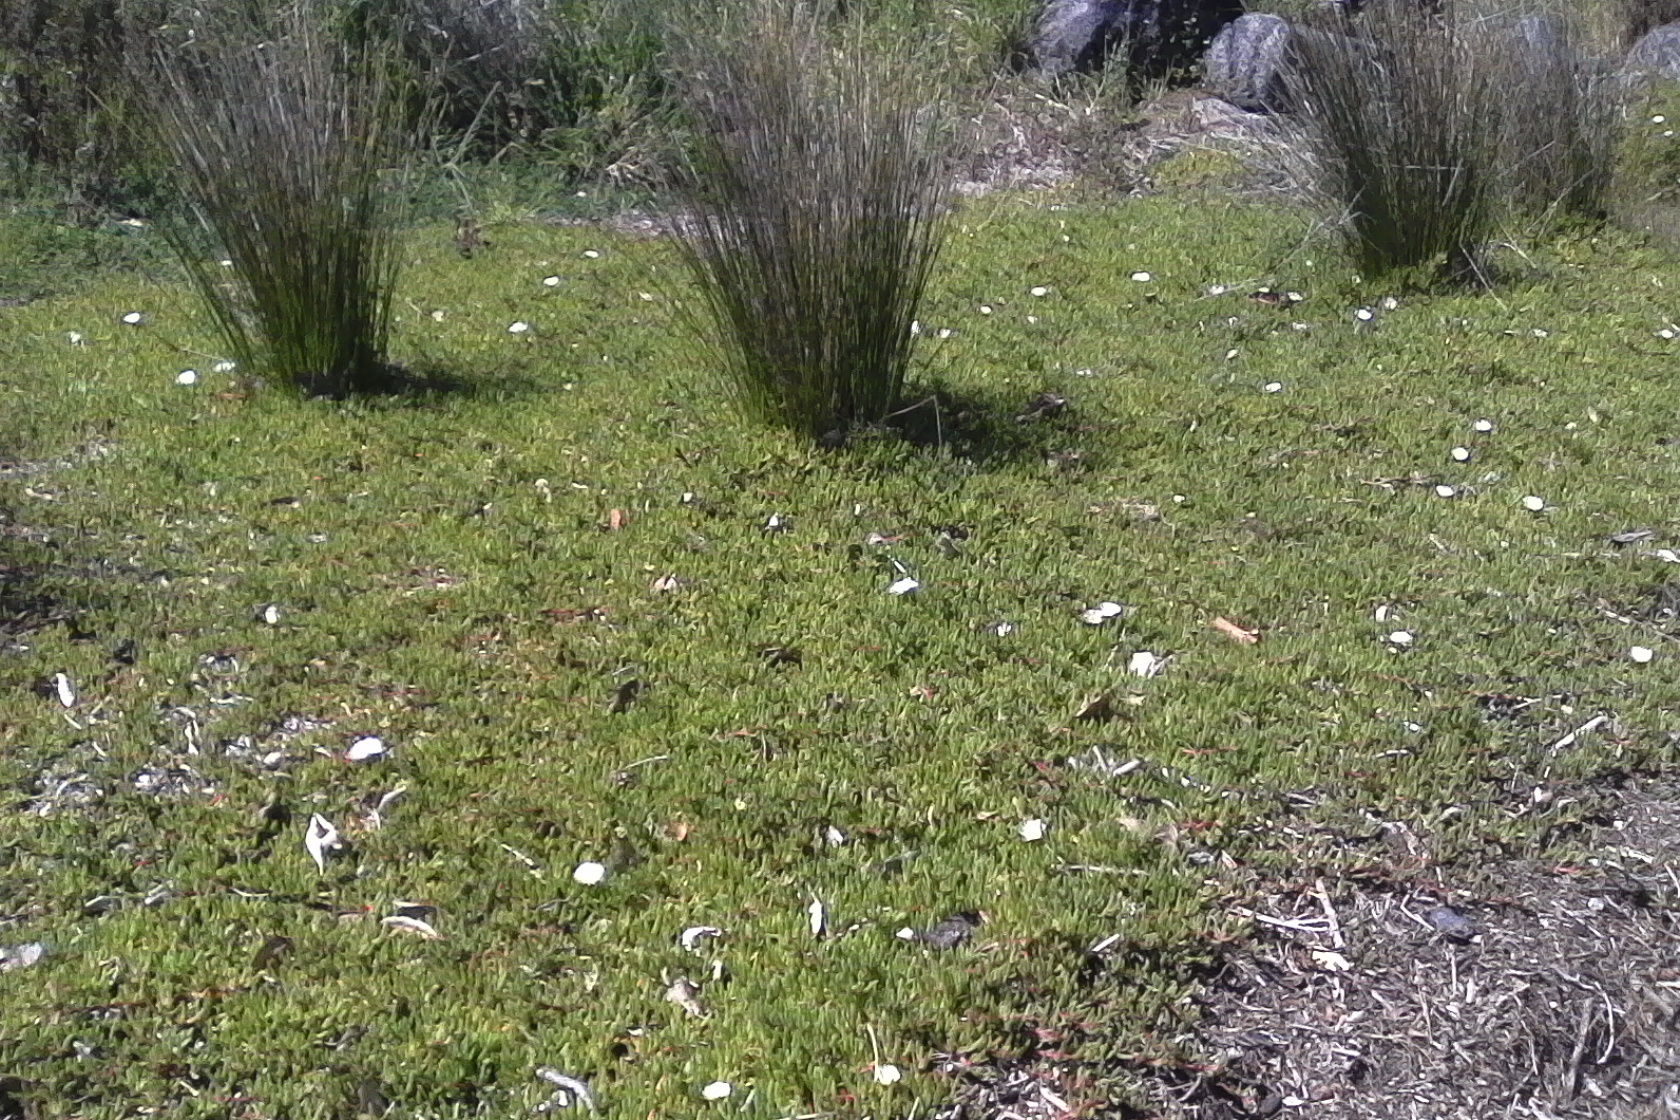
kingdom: Plantae
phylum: Tracheophyta
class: Magnoliopsida
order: Caryophyllales
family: Aizoaceae
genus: Disphyma
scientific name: Disphyma australe
